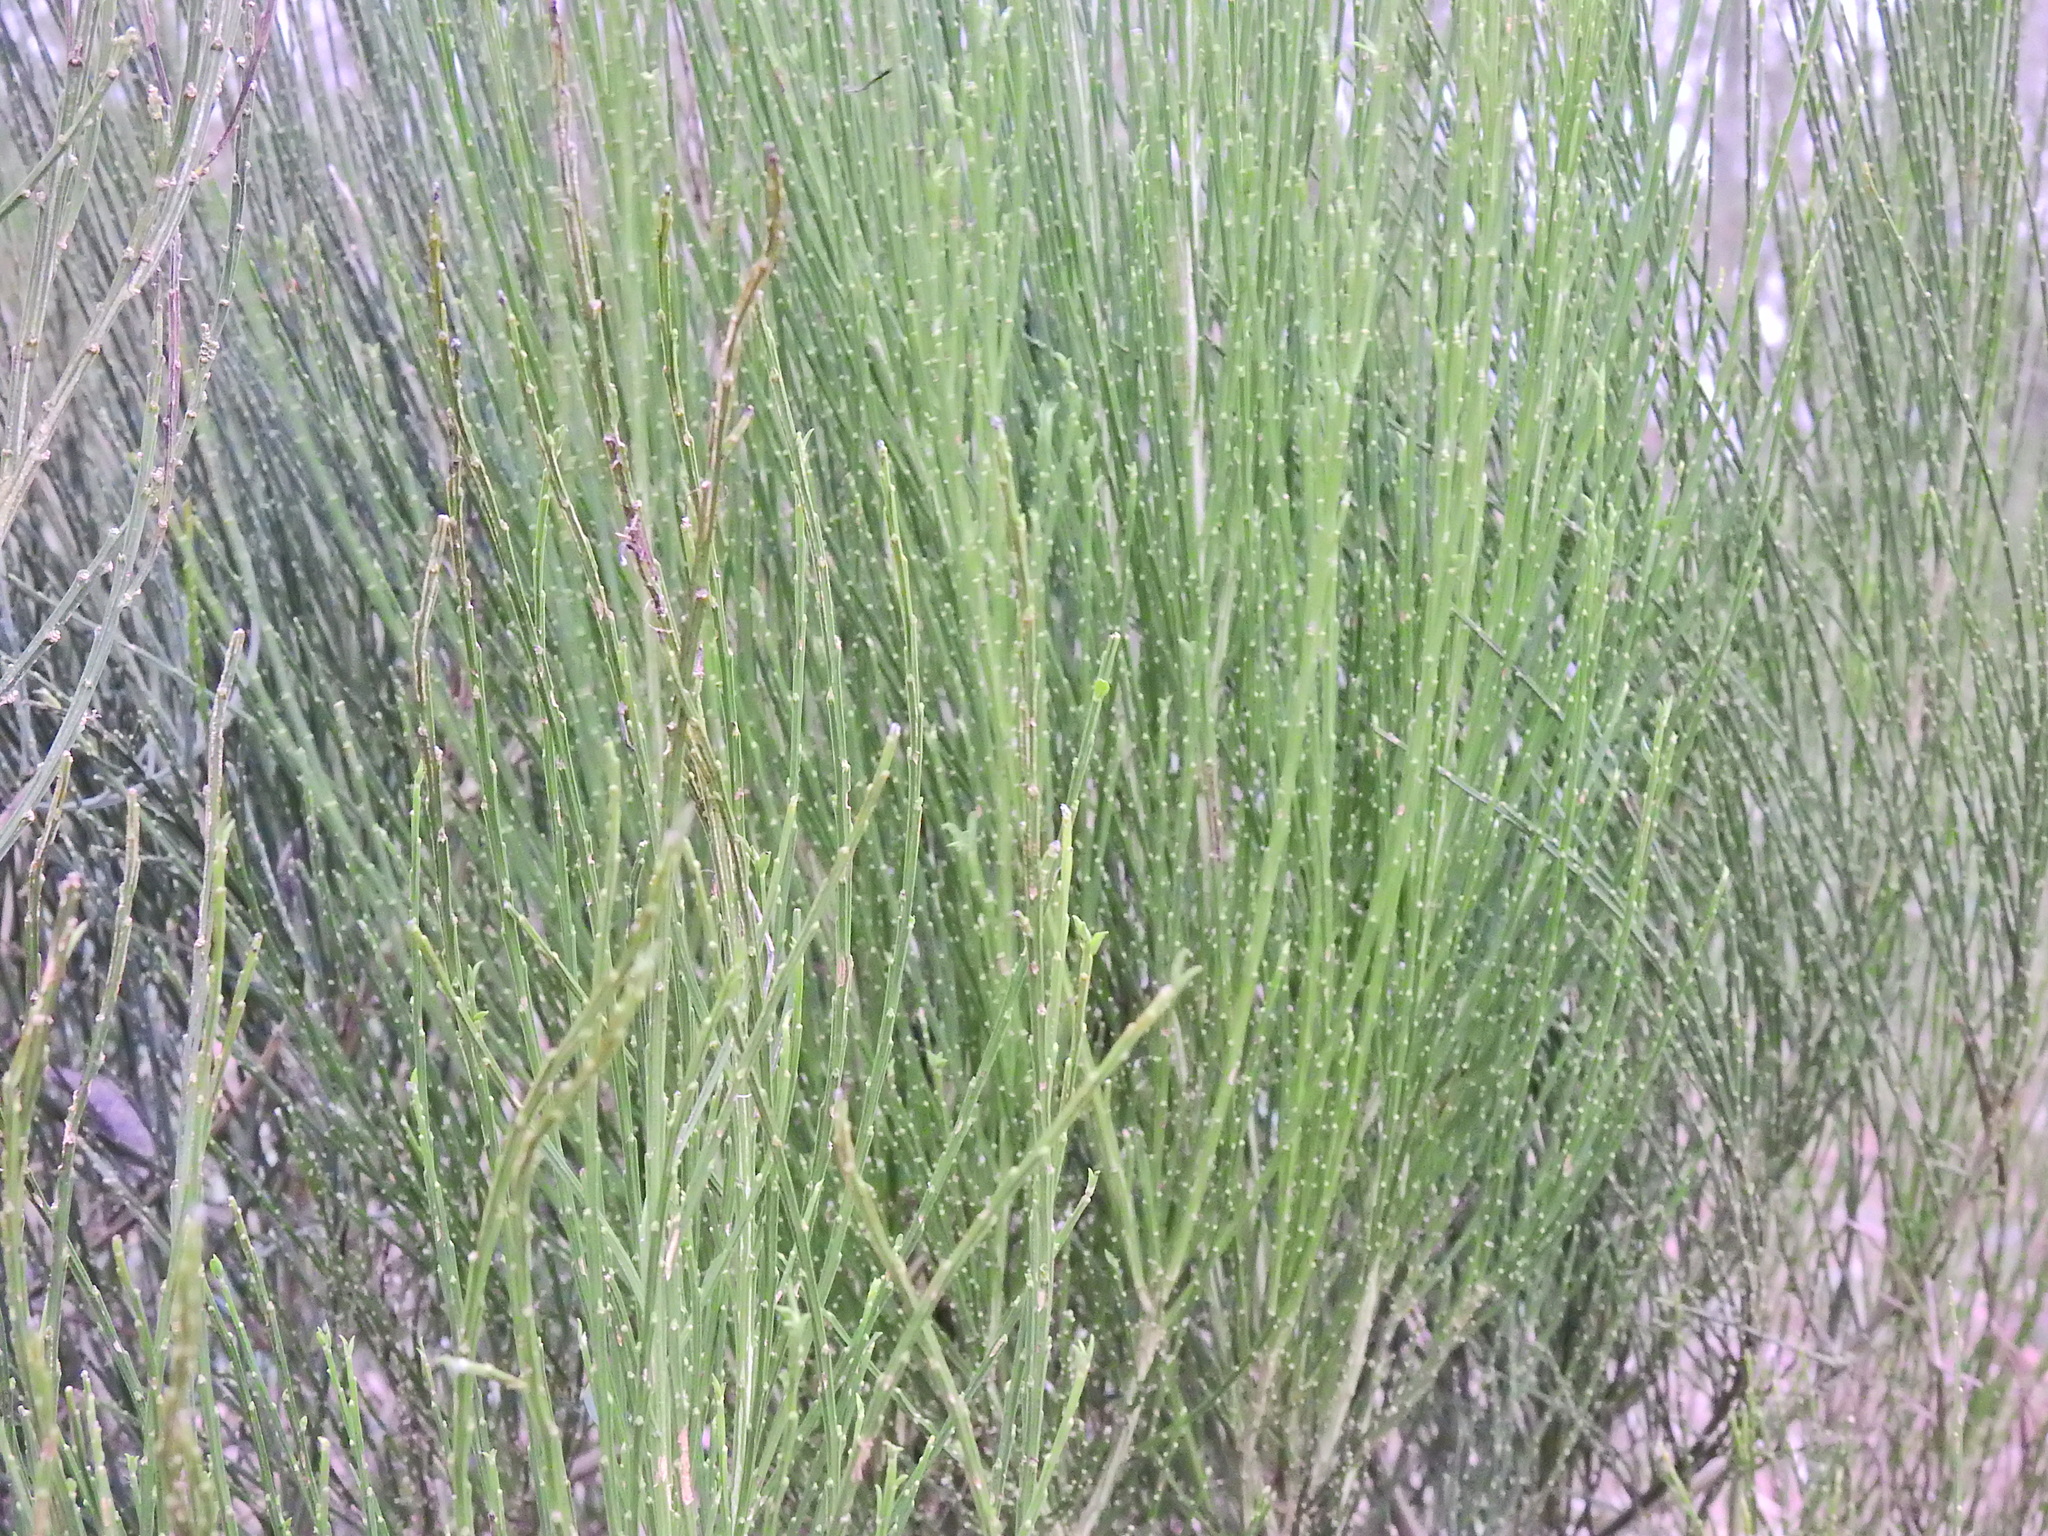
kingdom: Plantae
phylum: Tracheophyta
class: Magnoliopsida
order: Fabales
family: Fabaceae
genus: Cytisus
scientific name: Cytisus scoparius
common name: Scotch broom
